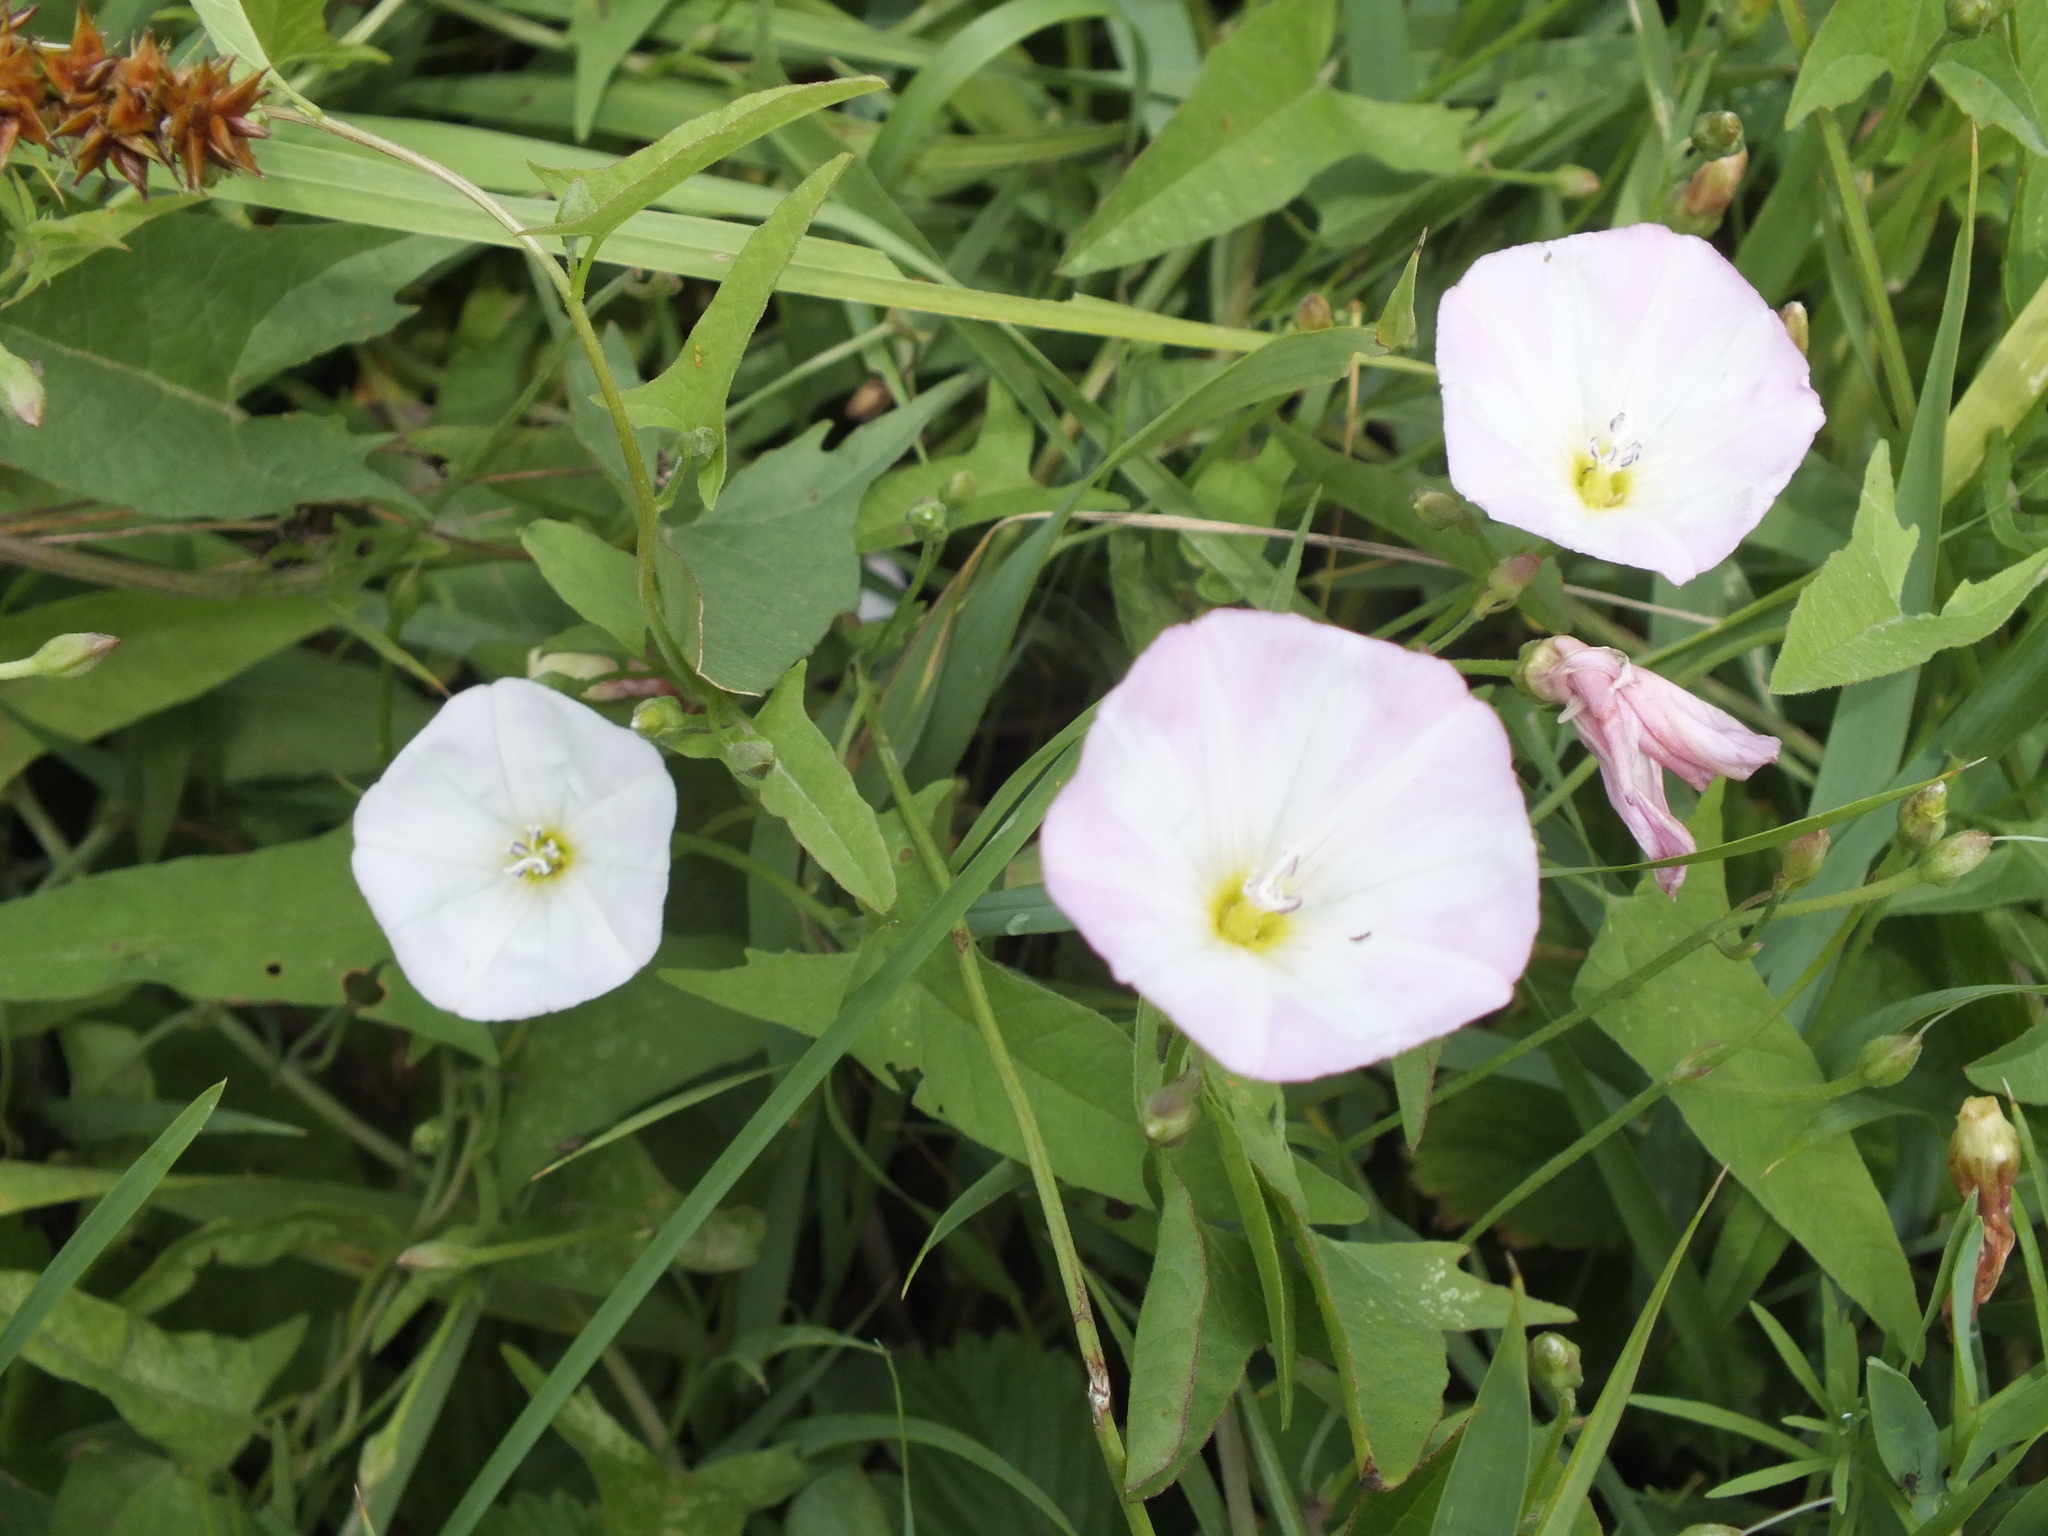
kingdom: Plantae
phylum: Tracheophyta
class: Magnoliopsida
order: Solanales
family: Convolvulaceae
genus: Convolvulus
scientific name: Convolvulus arvensis
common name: Field bindweed
